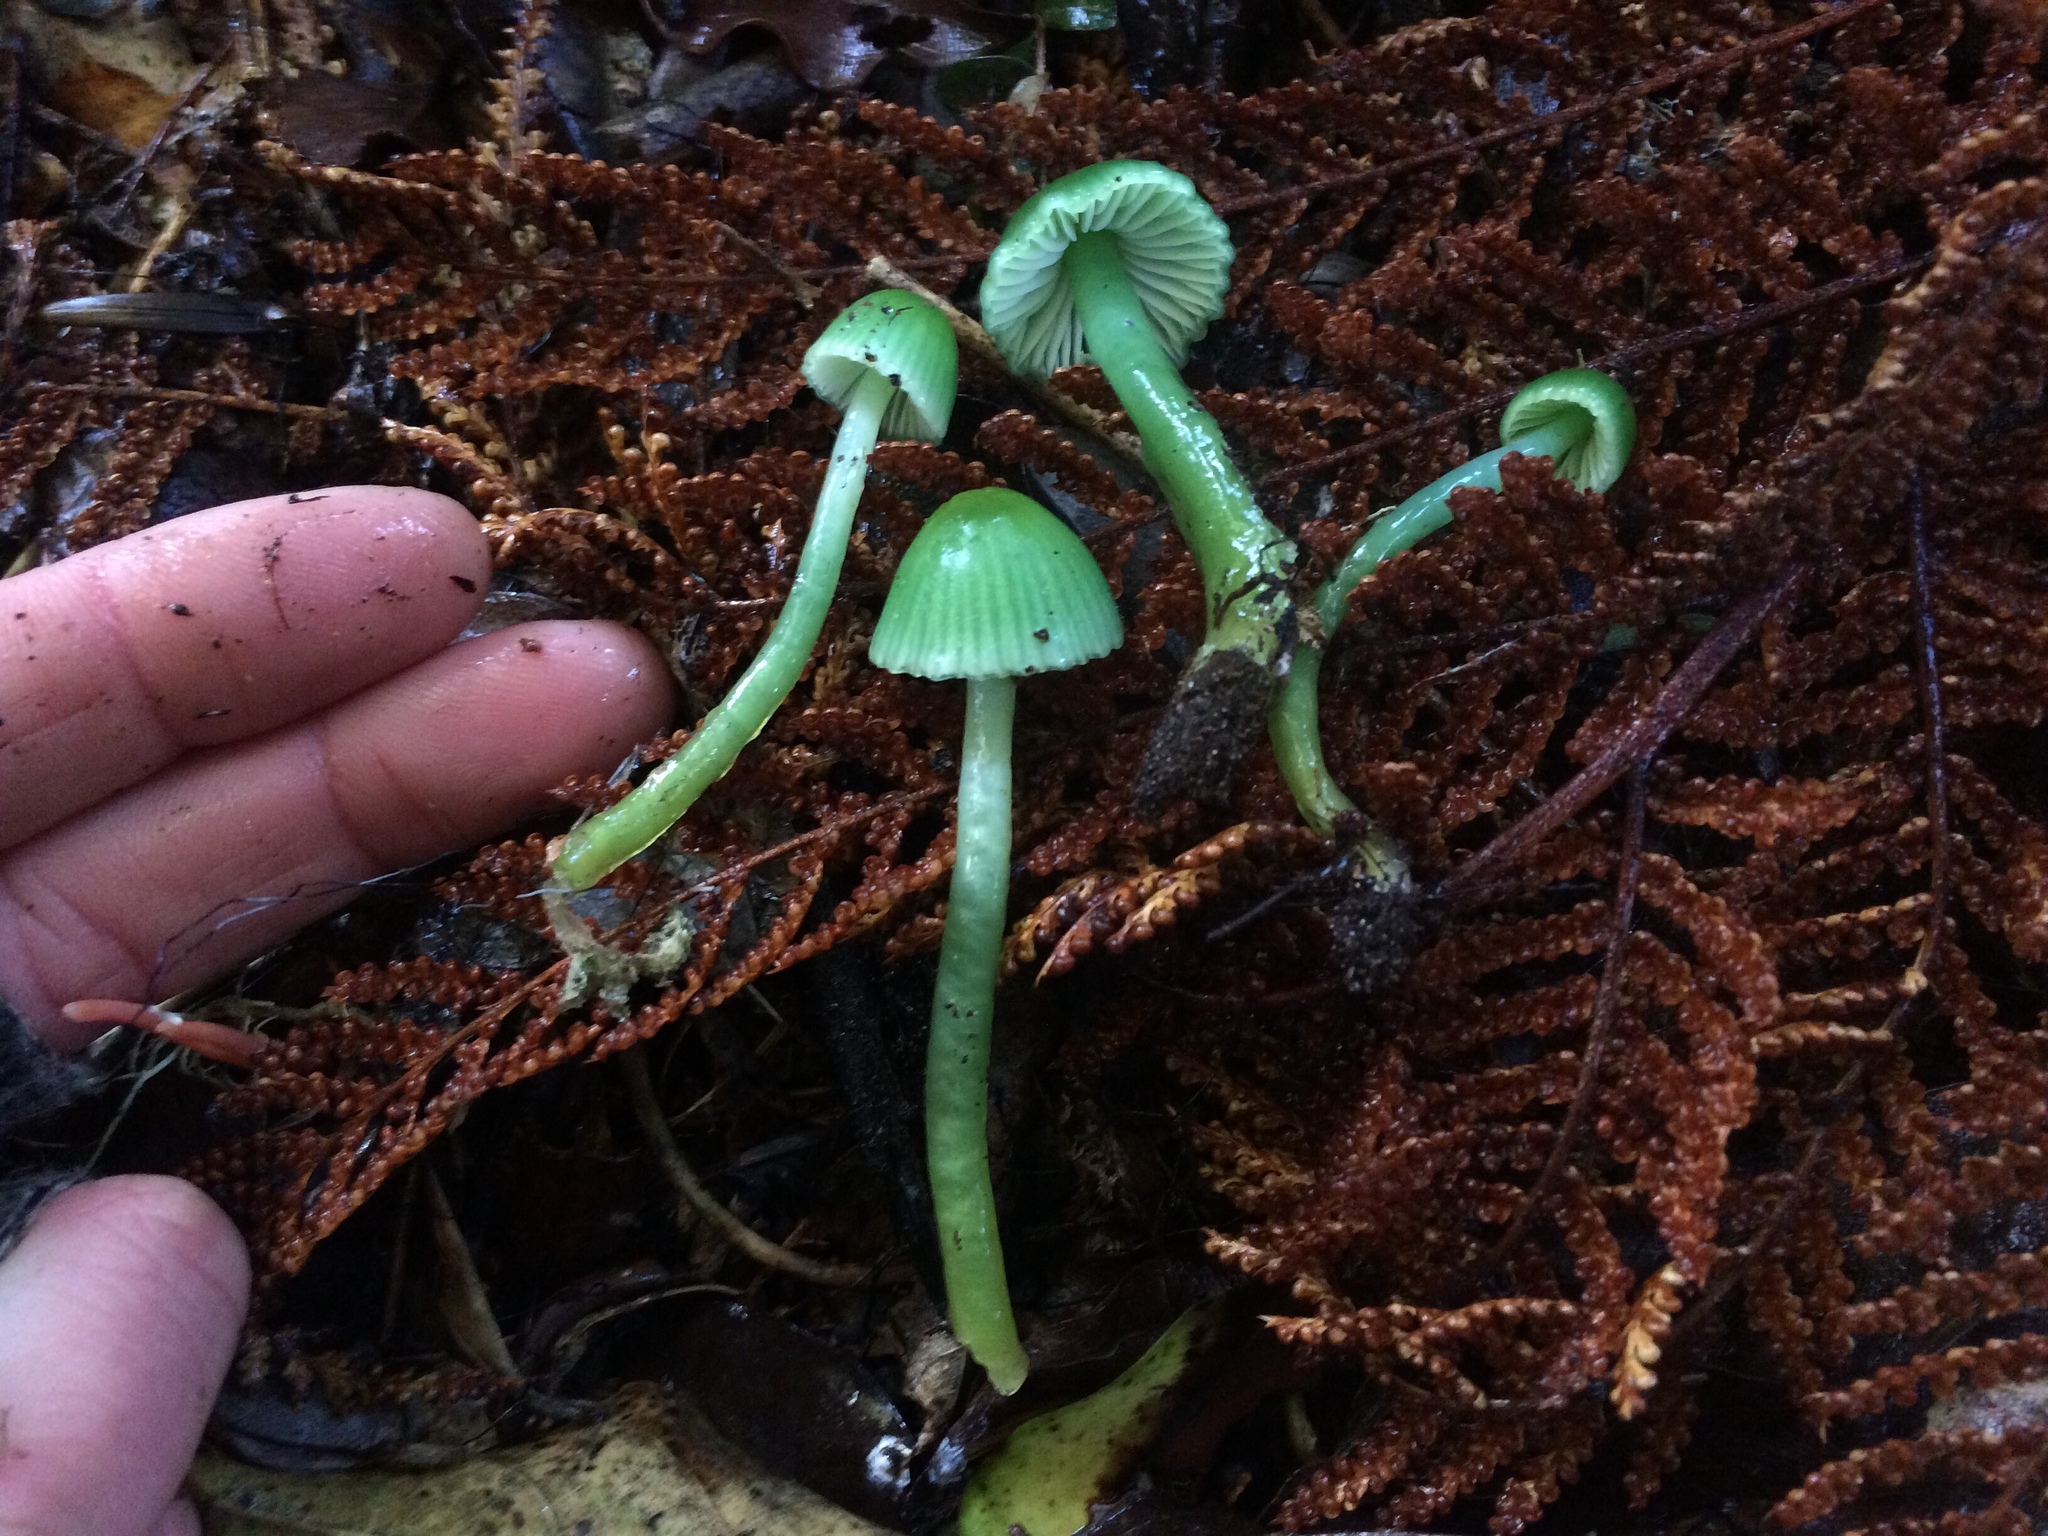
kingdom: Fungi
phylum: Basidiomycota
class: Agaricomycetes
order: Agaricales
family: Hygrophoraceae
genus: Gliophorus
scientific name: Gliophorus viridis
